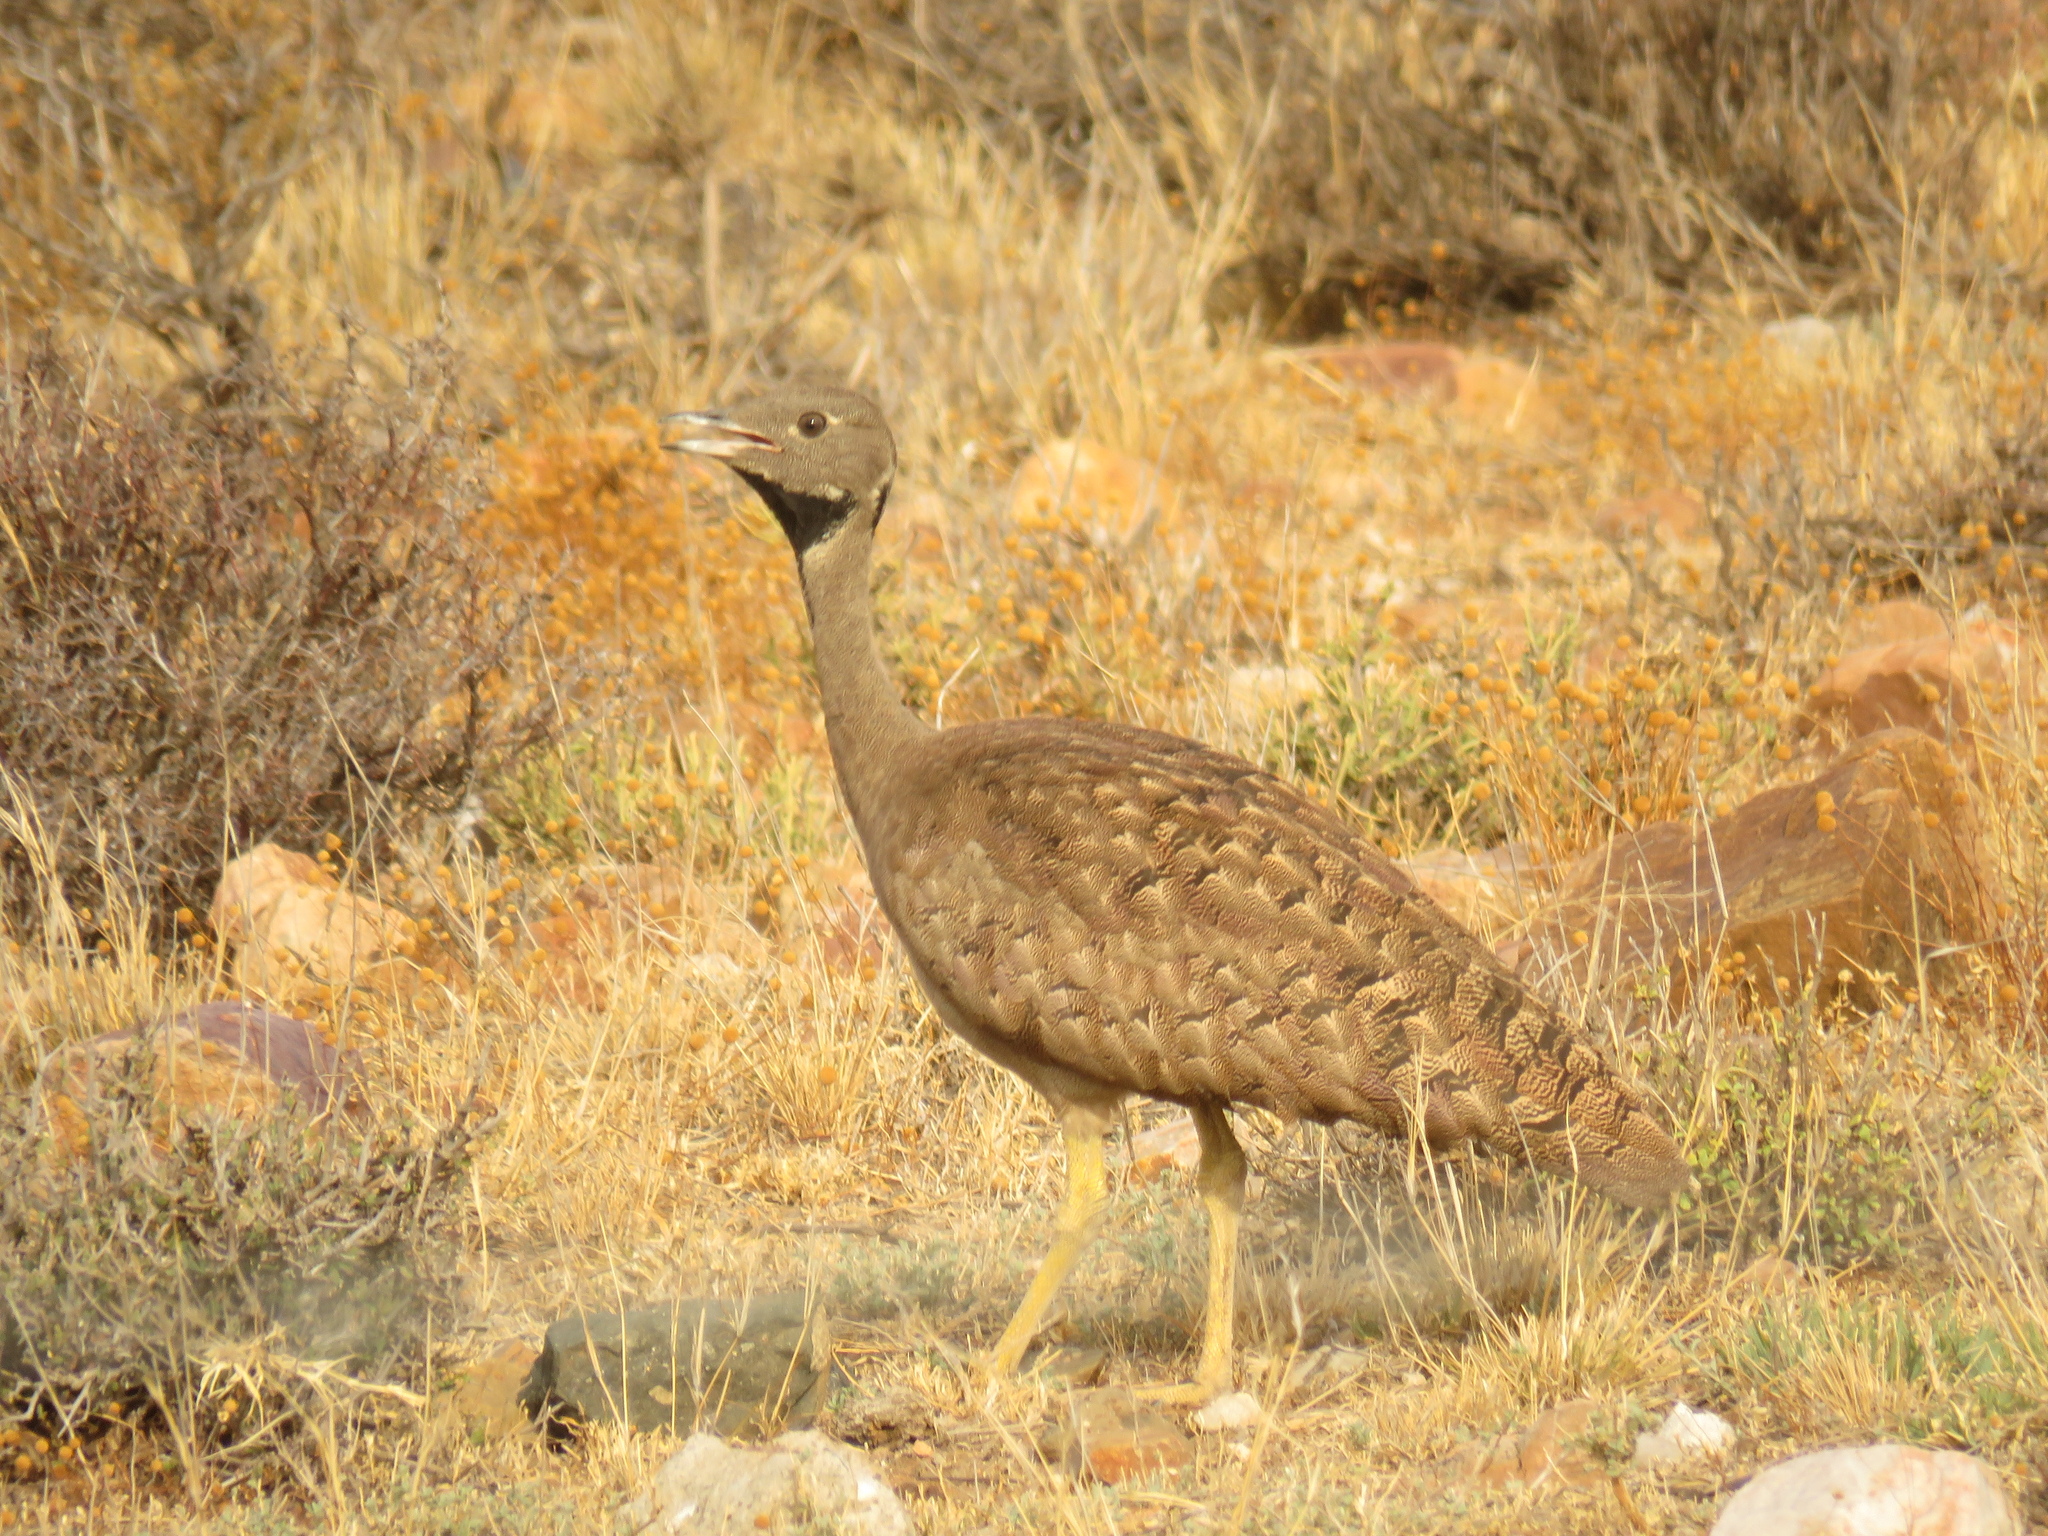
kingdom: Animalia
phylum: Chordata
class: Aves
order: Otidiformes
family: Otididae
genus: Eupodotis
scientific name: Eupodotis vigorsii
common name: Karoo korhaan
